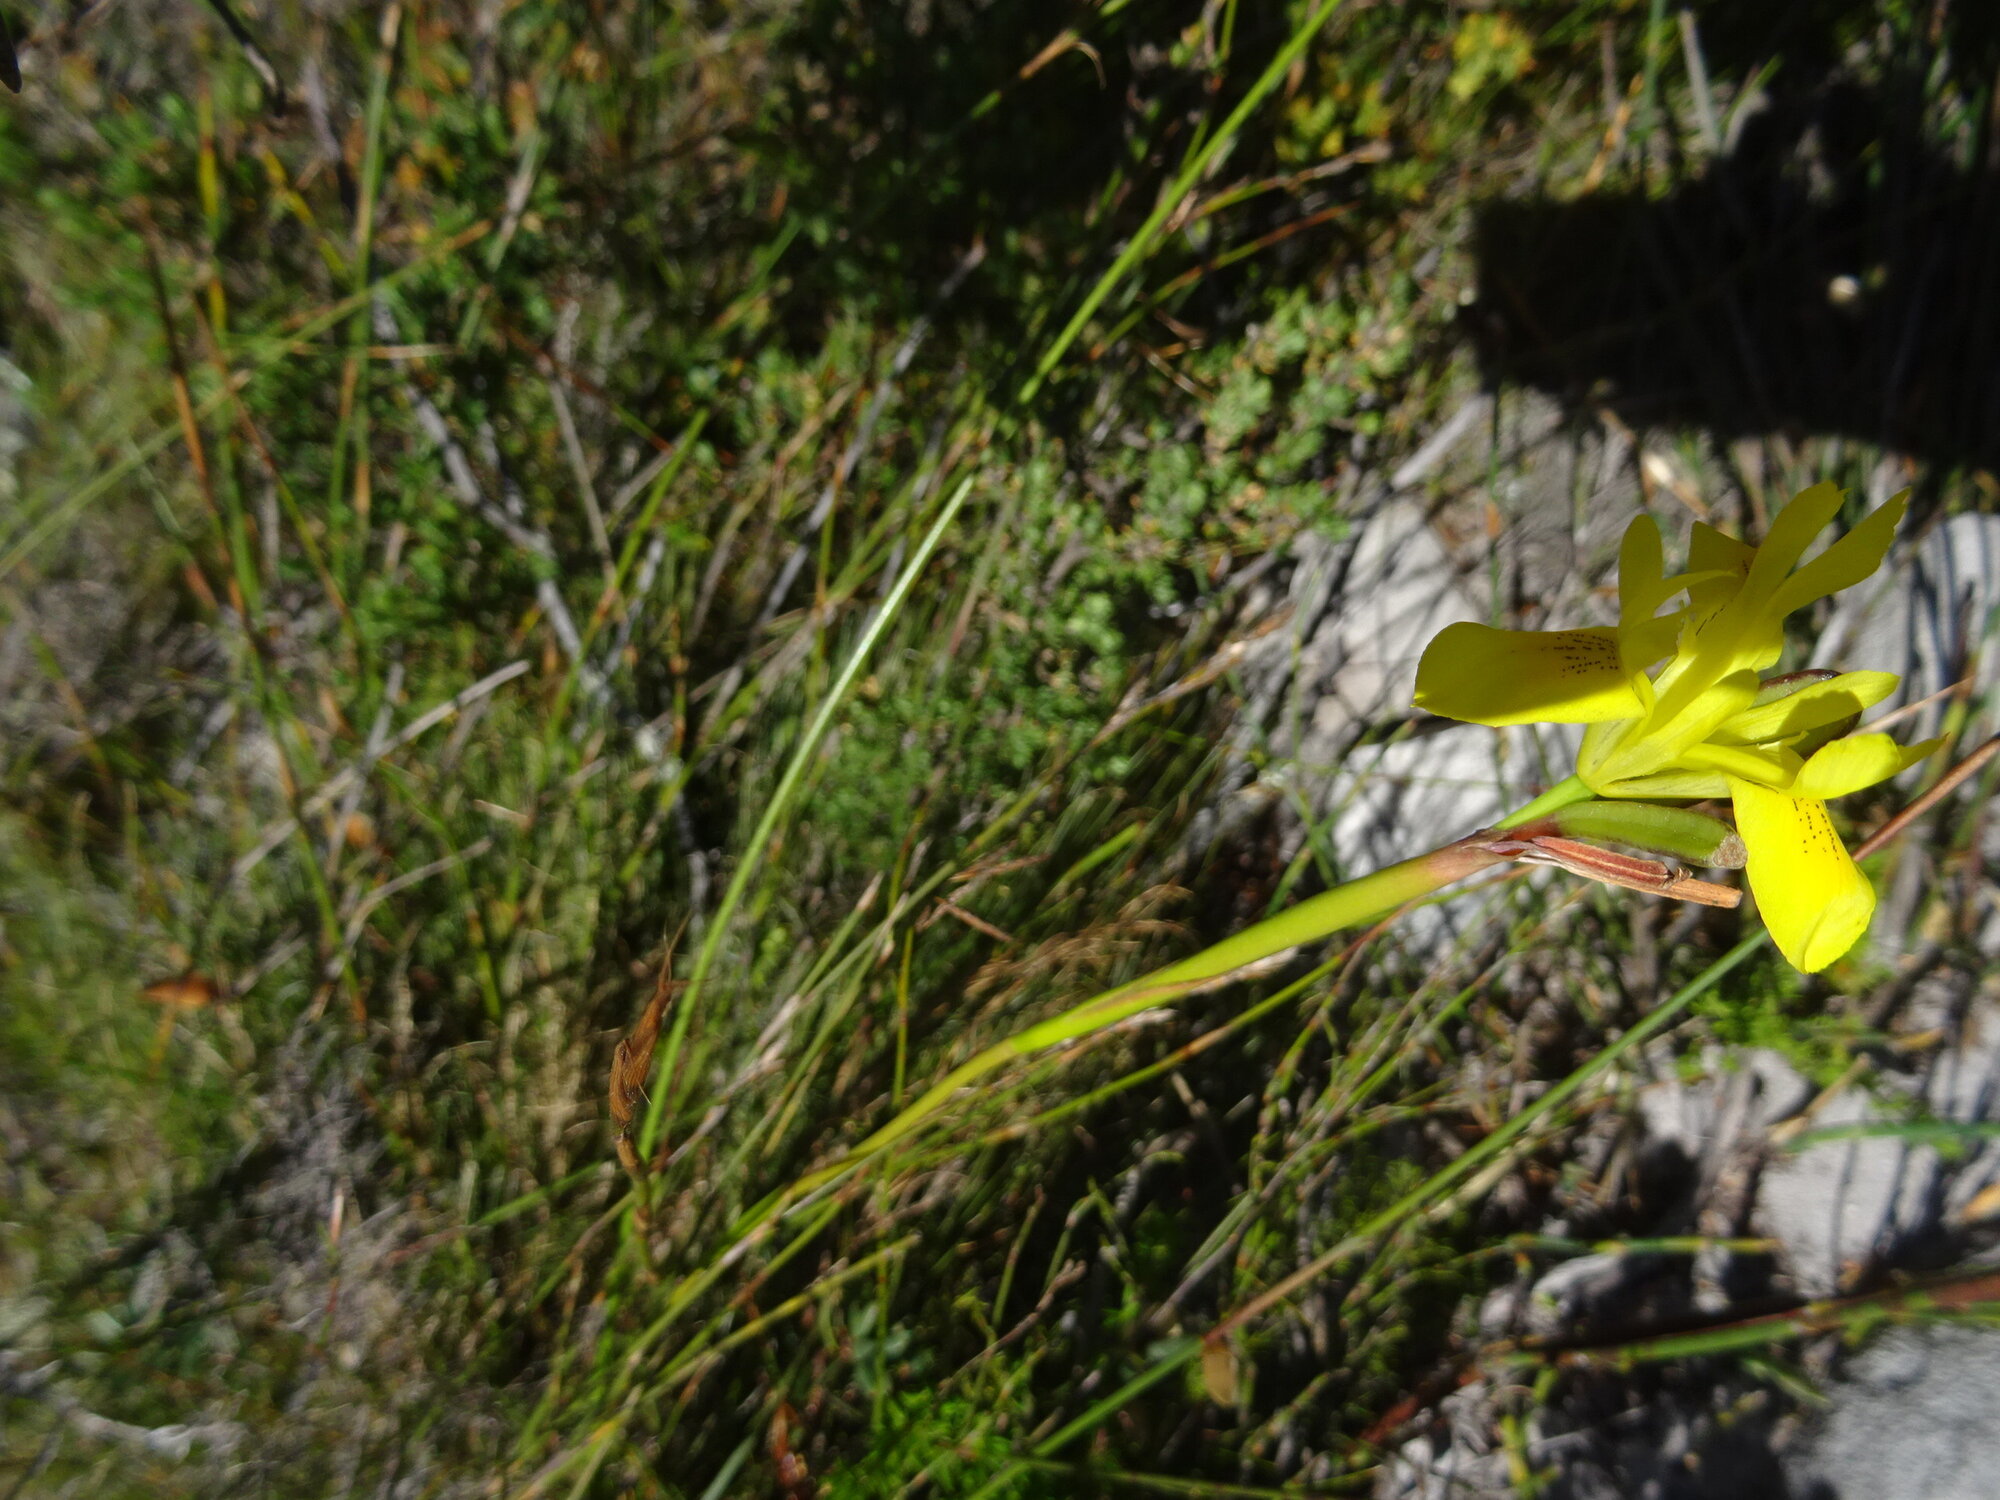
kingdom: Plantae
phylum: Tracheophyta
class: Liliopsida
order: Asparagales
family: Iridaceae
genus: Moraea
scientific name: Moraea neglecta
